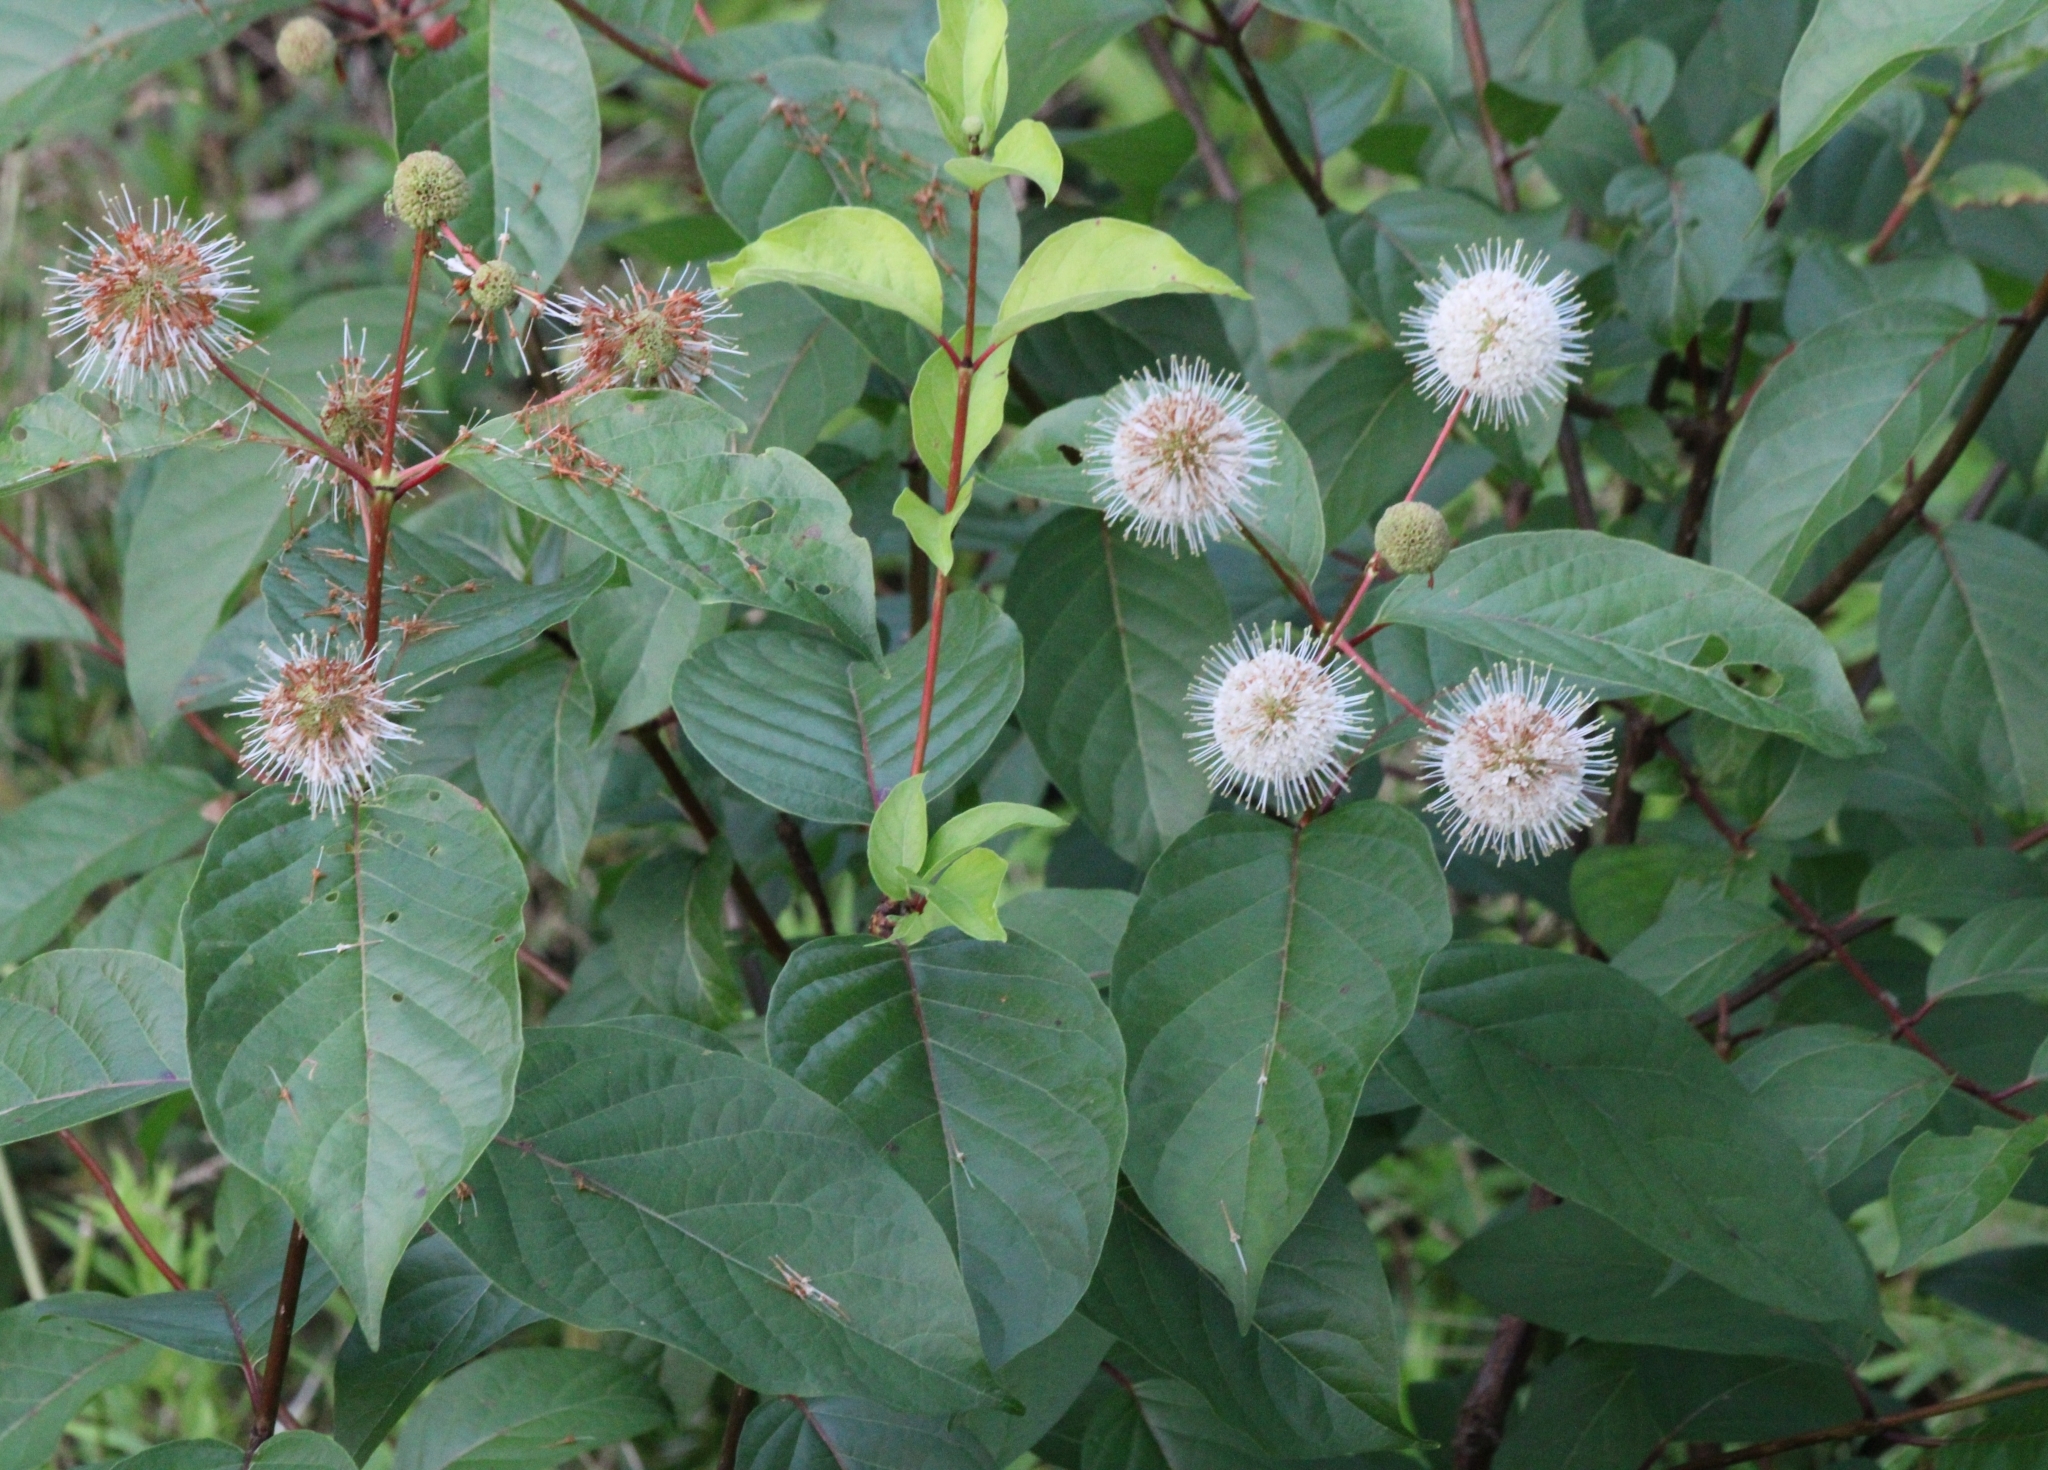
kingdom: Plantae
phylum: Tracheophyta
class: Magnoliopsida
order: Gentianales
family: Rubiaceae
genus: Cephalanthus
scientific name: Cephalanthus occidentalis
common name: Button-willow
